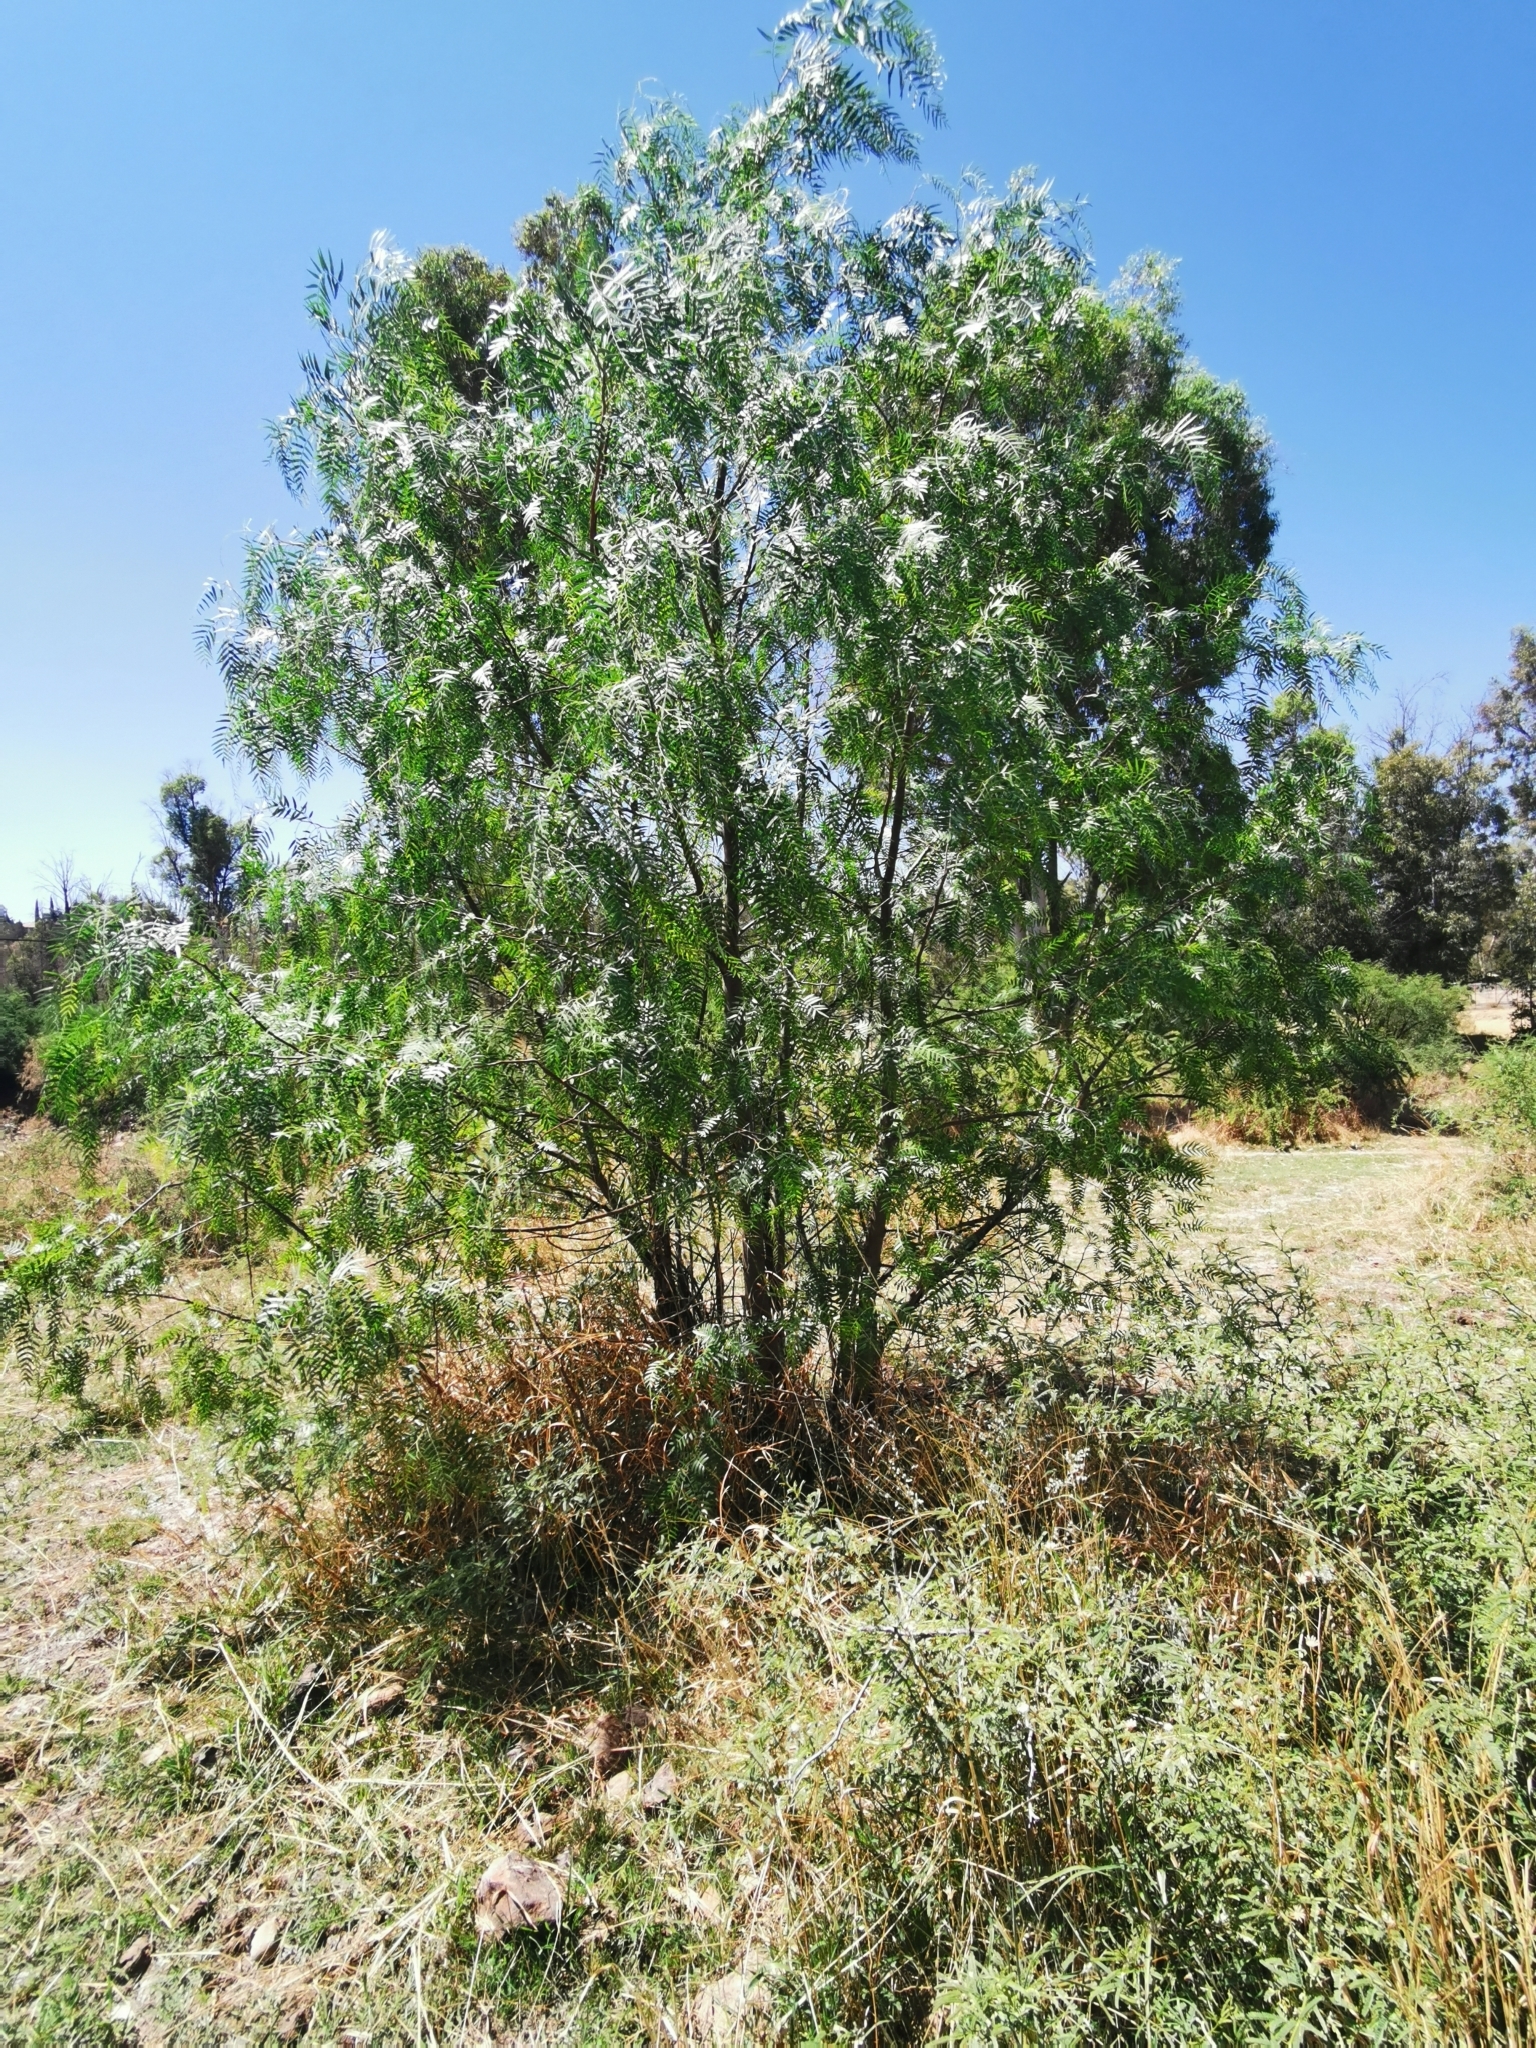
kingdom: Plantae
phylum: Tracheophyta
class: Magnoliopsida
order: Sapindales
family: Anacardiaceae
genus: Schinus
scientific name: Schinus molle
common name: Peruvian peppertree
